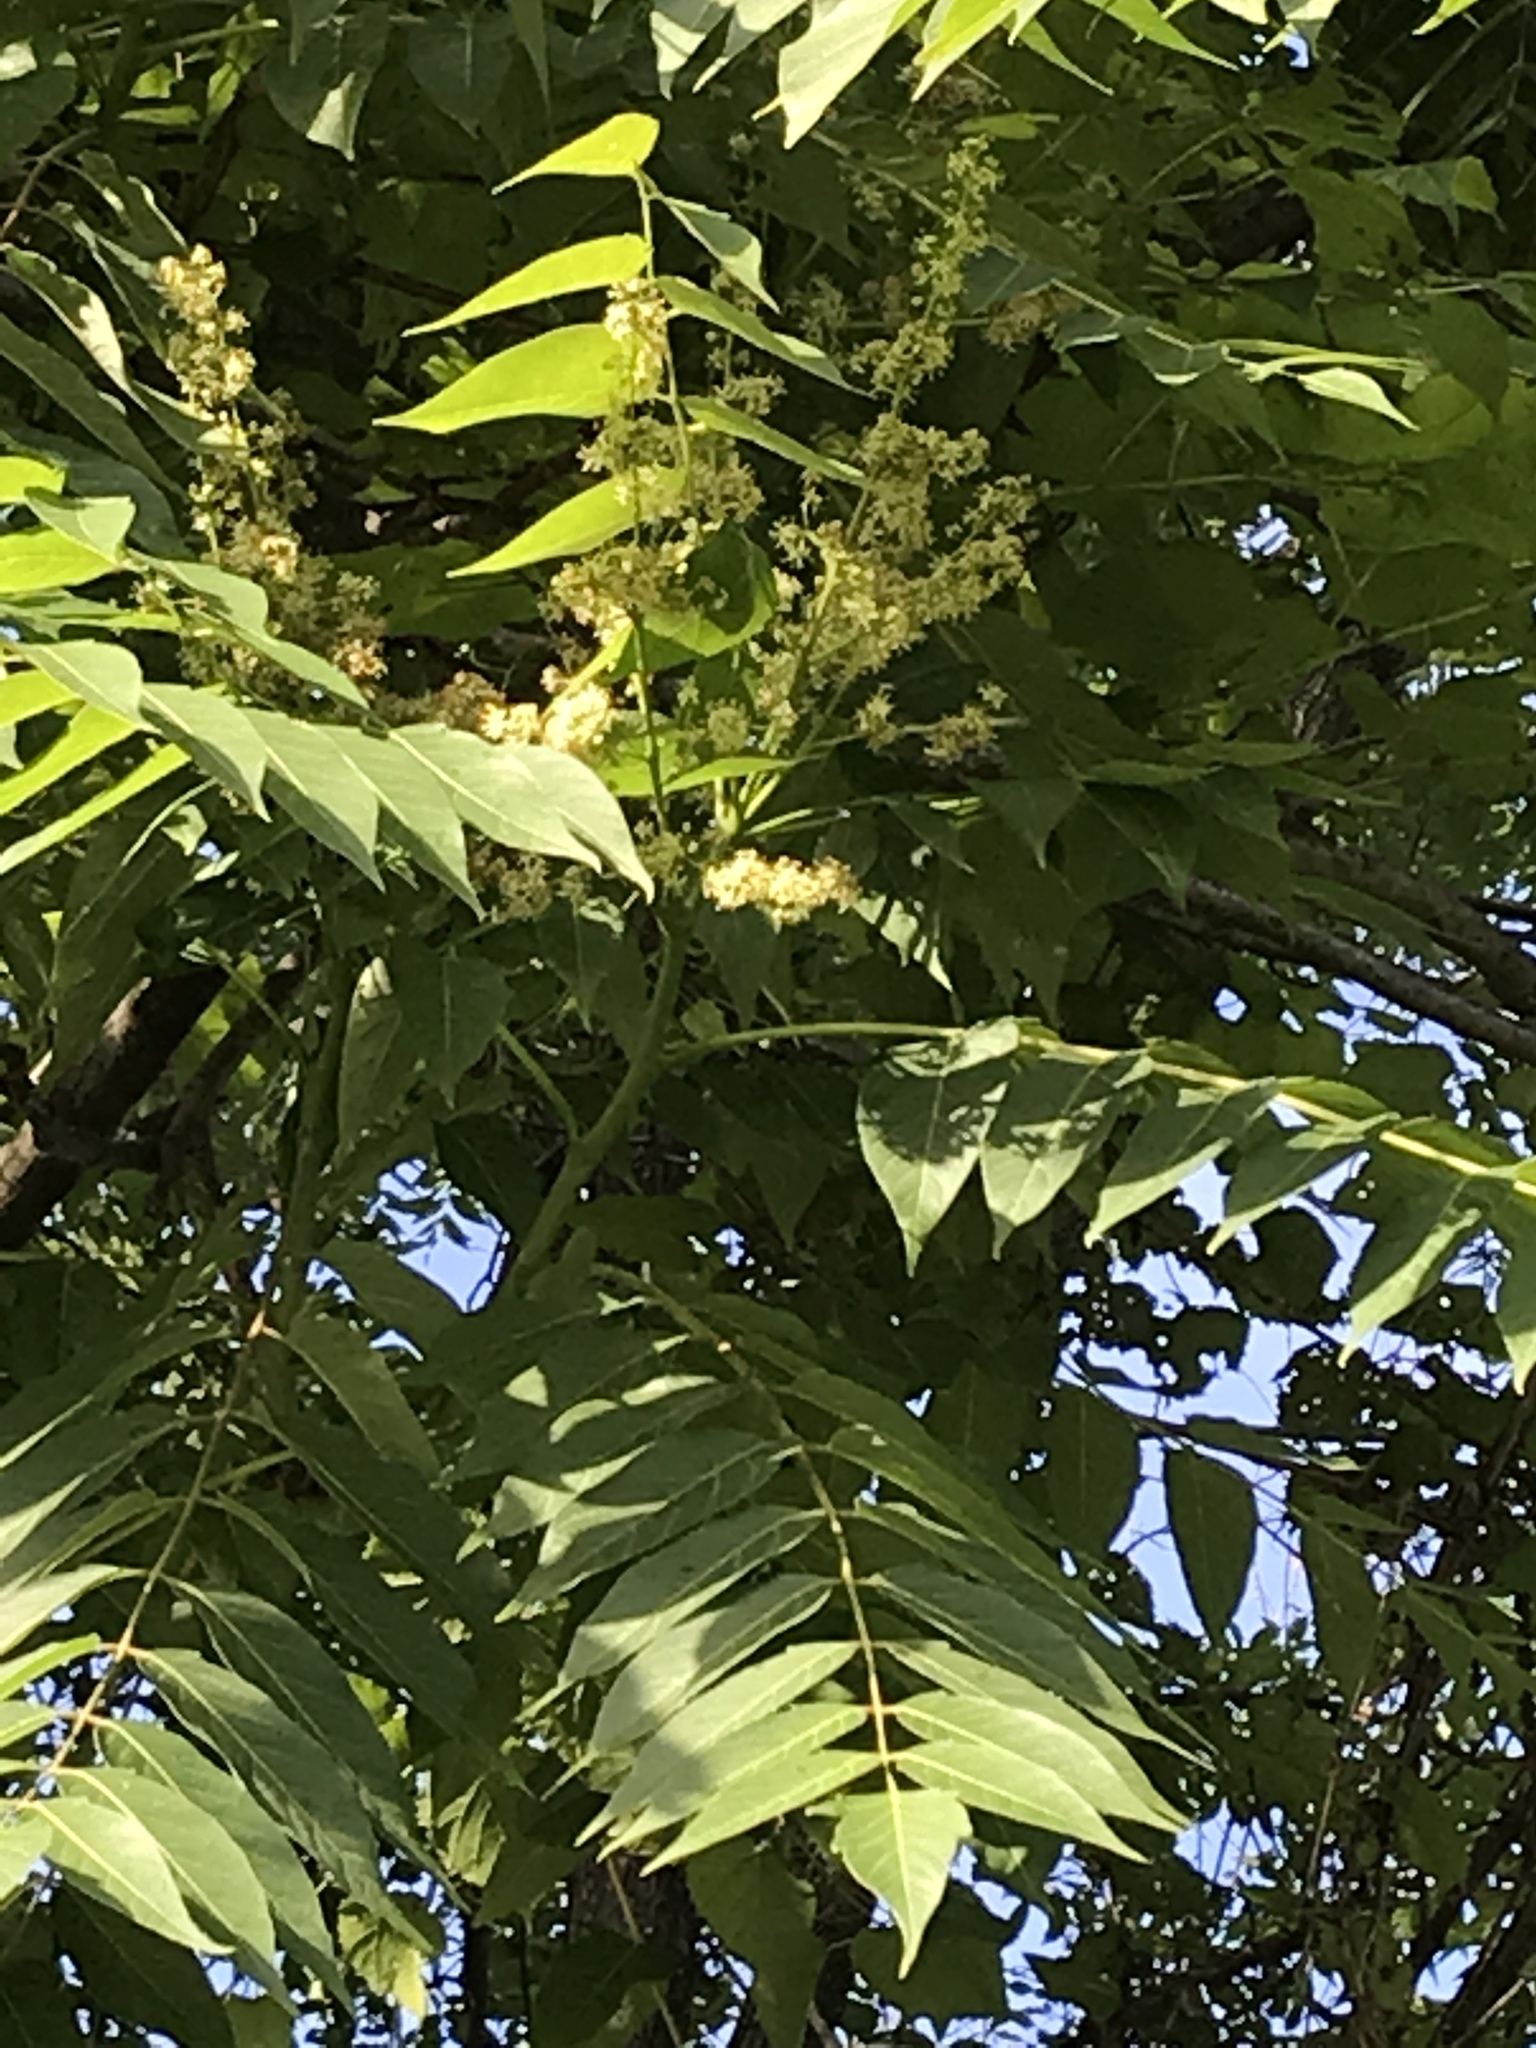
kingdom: Plantae
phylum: Tracheophyta
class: Magnoliopsida
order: Sapindales
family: Simaroubaceae
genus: Ailanthus
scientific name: Ailanthus altissima
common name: Tree-of-heaven
